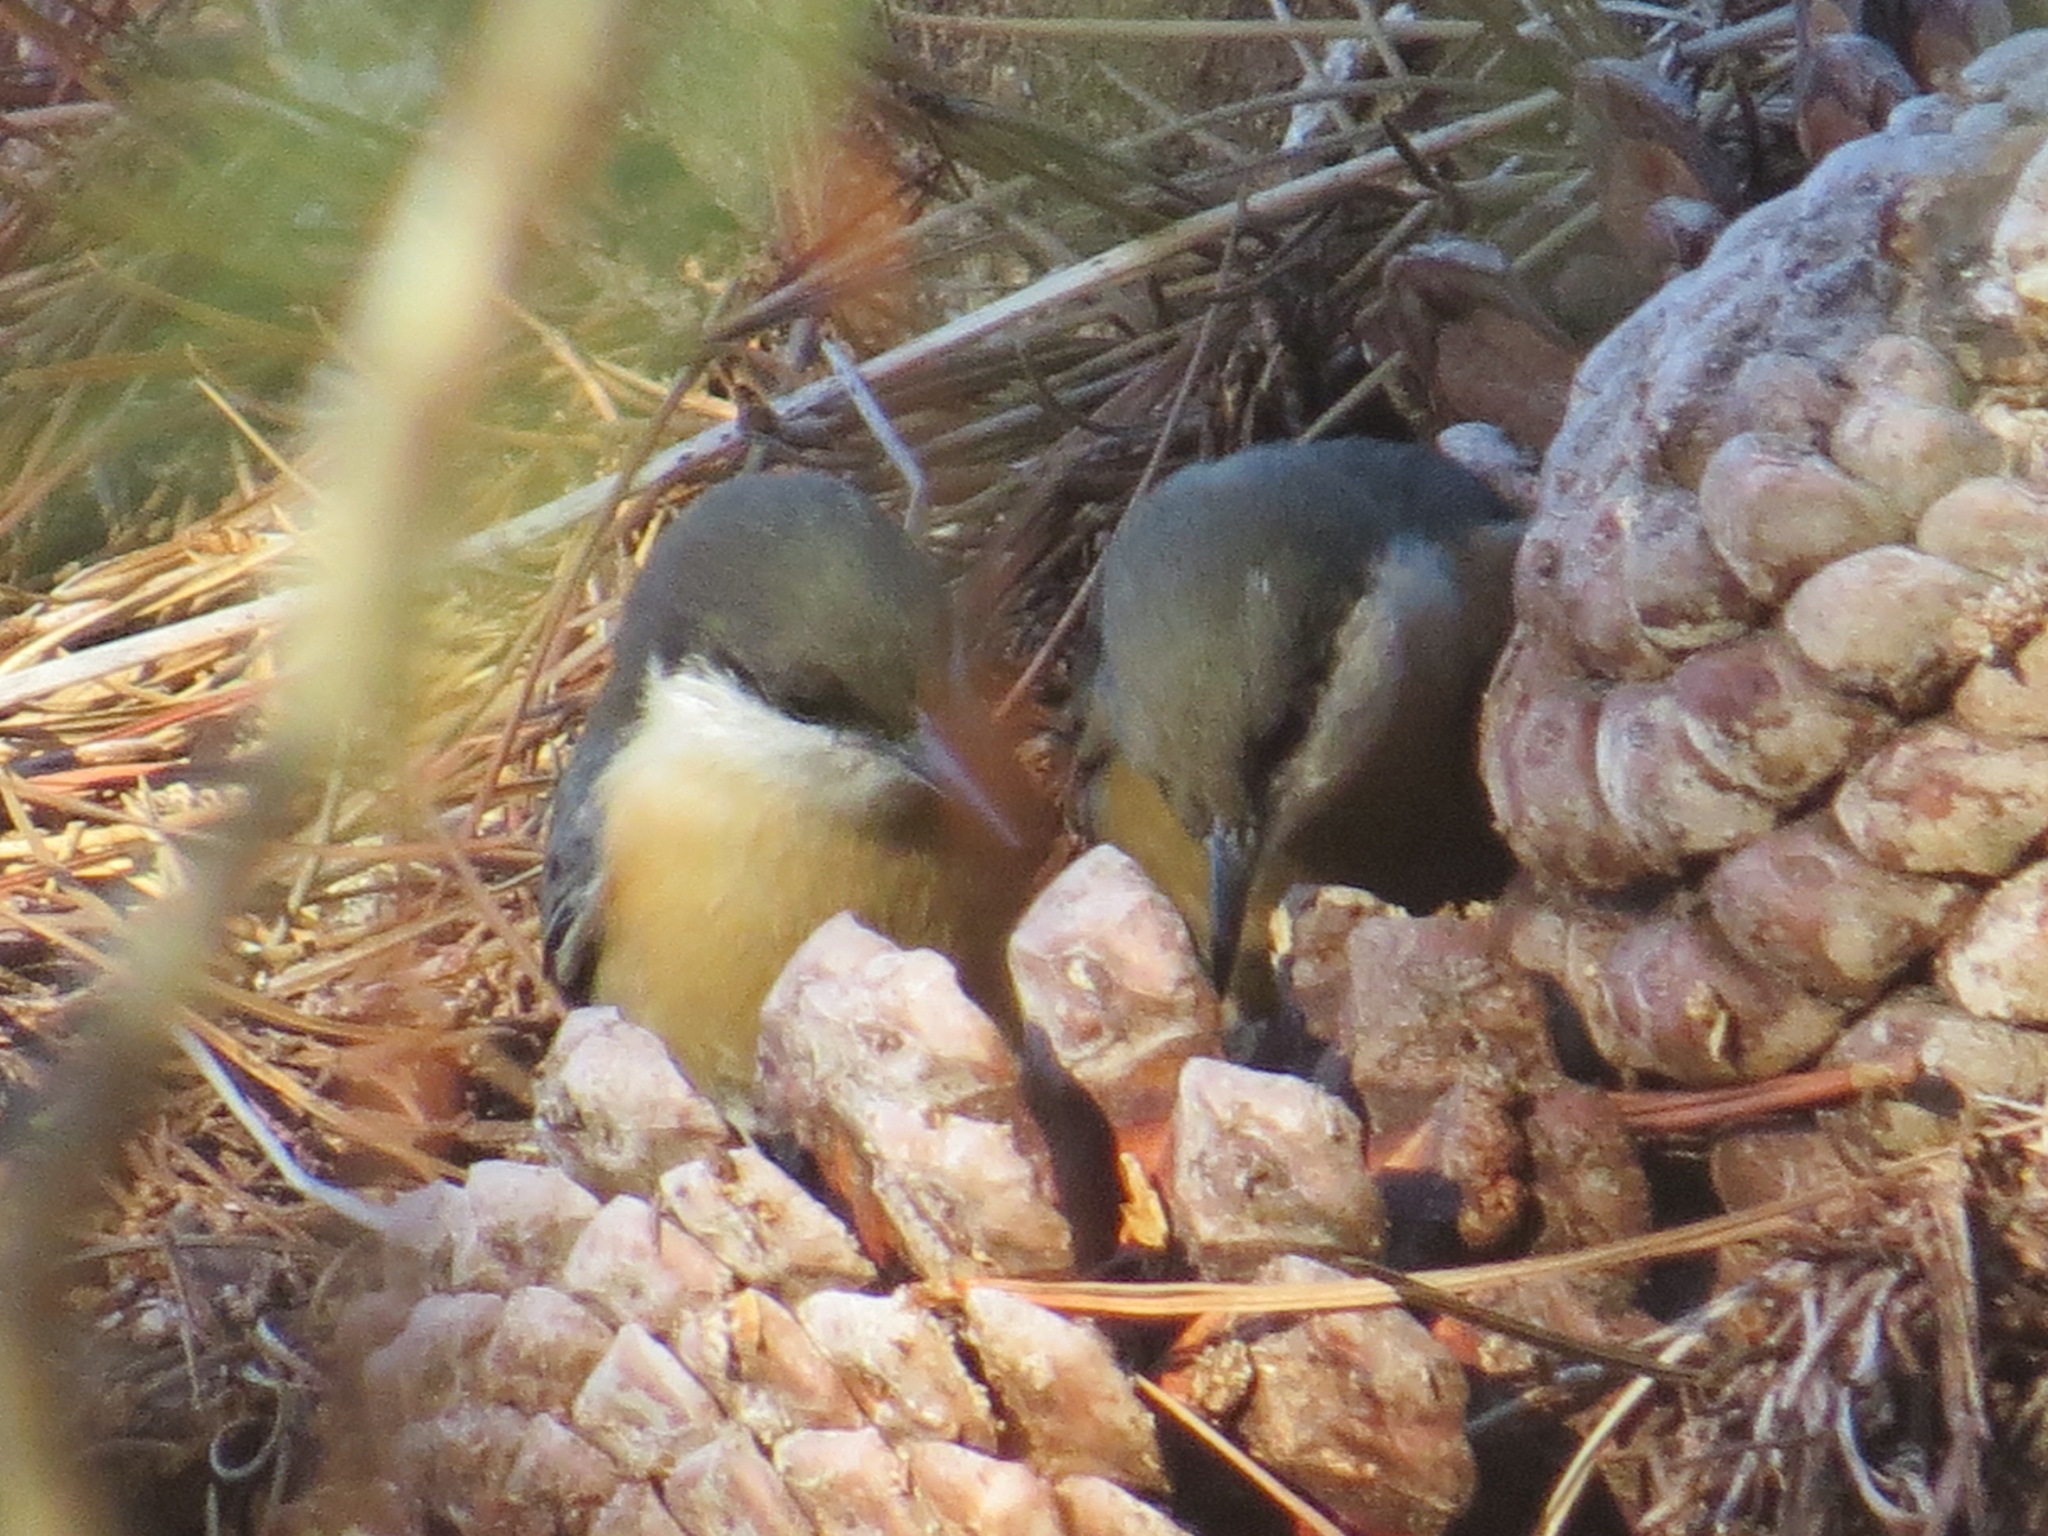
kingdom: Animalia
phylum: Chordata
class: Aves
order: Passeriformes
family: Sittidae
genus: Sitta
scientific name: Sitta pygmaea
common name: Pygmy nuthatch
